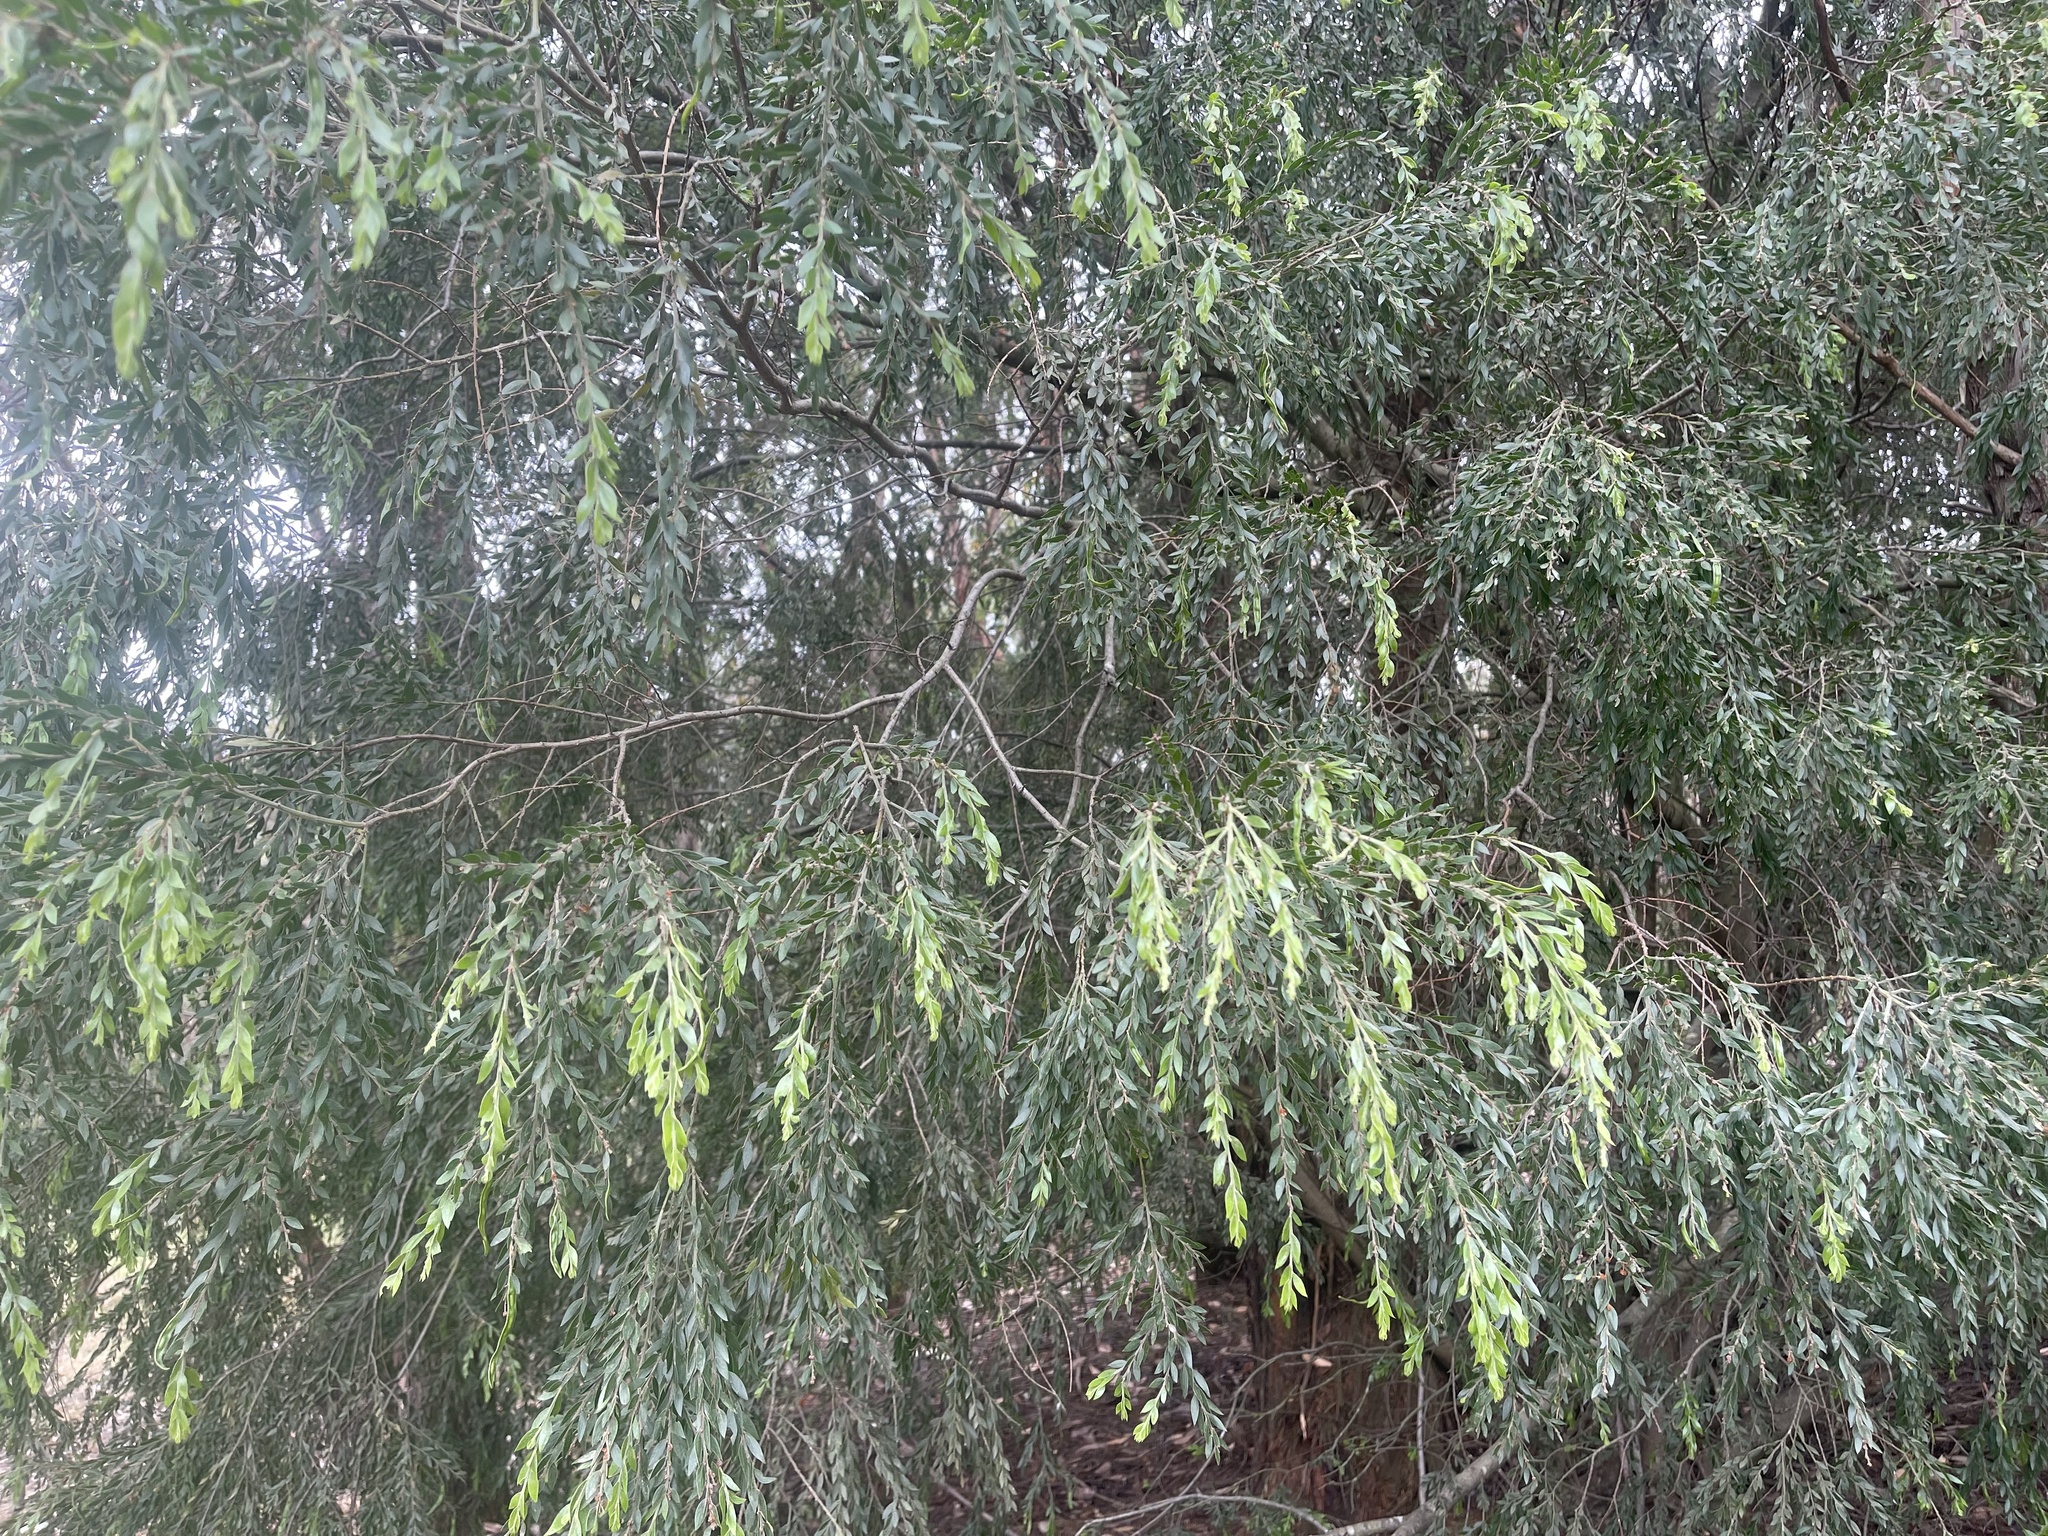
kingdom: Plantae
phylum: Tracheophyta
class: Magnoliopsida
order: Fabales
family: Fabaceae
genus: Acacia
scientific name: Acacia howittii
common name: Sticky wattle
